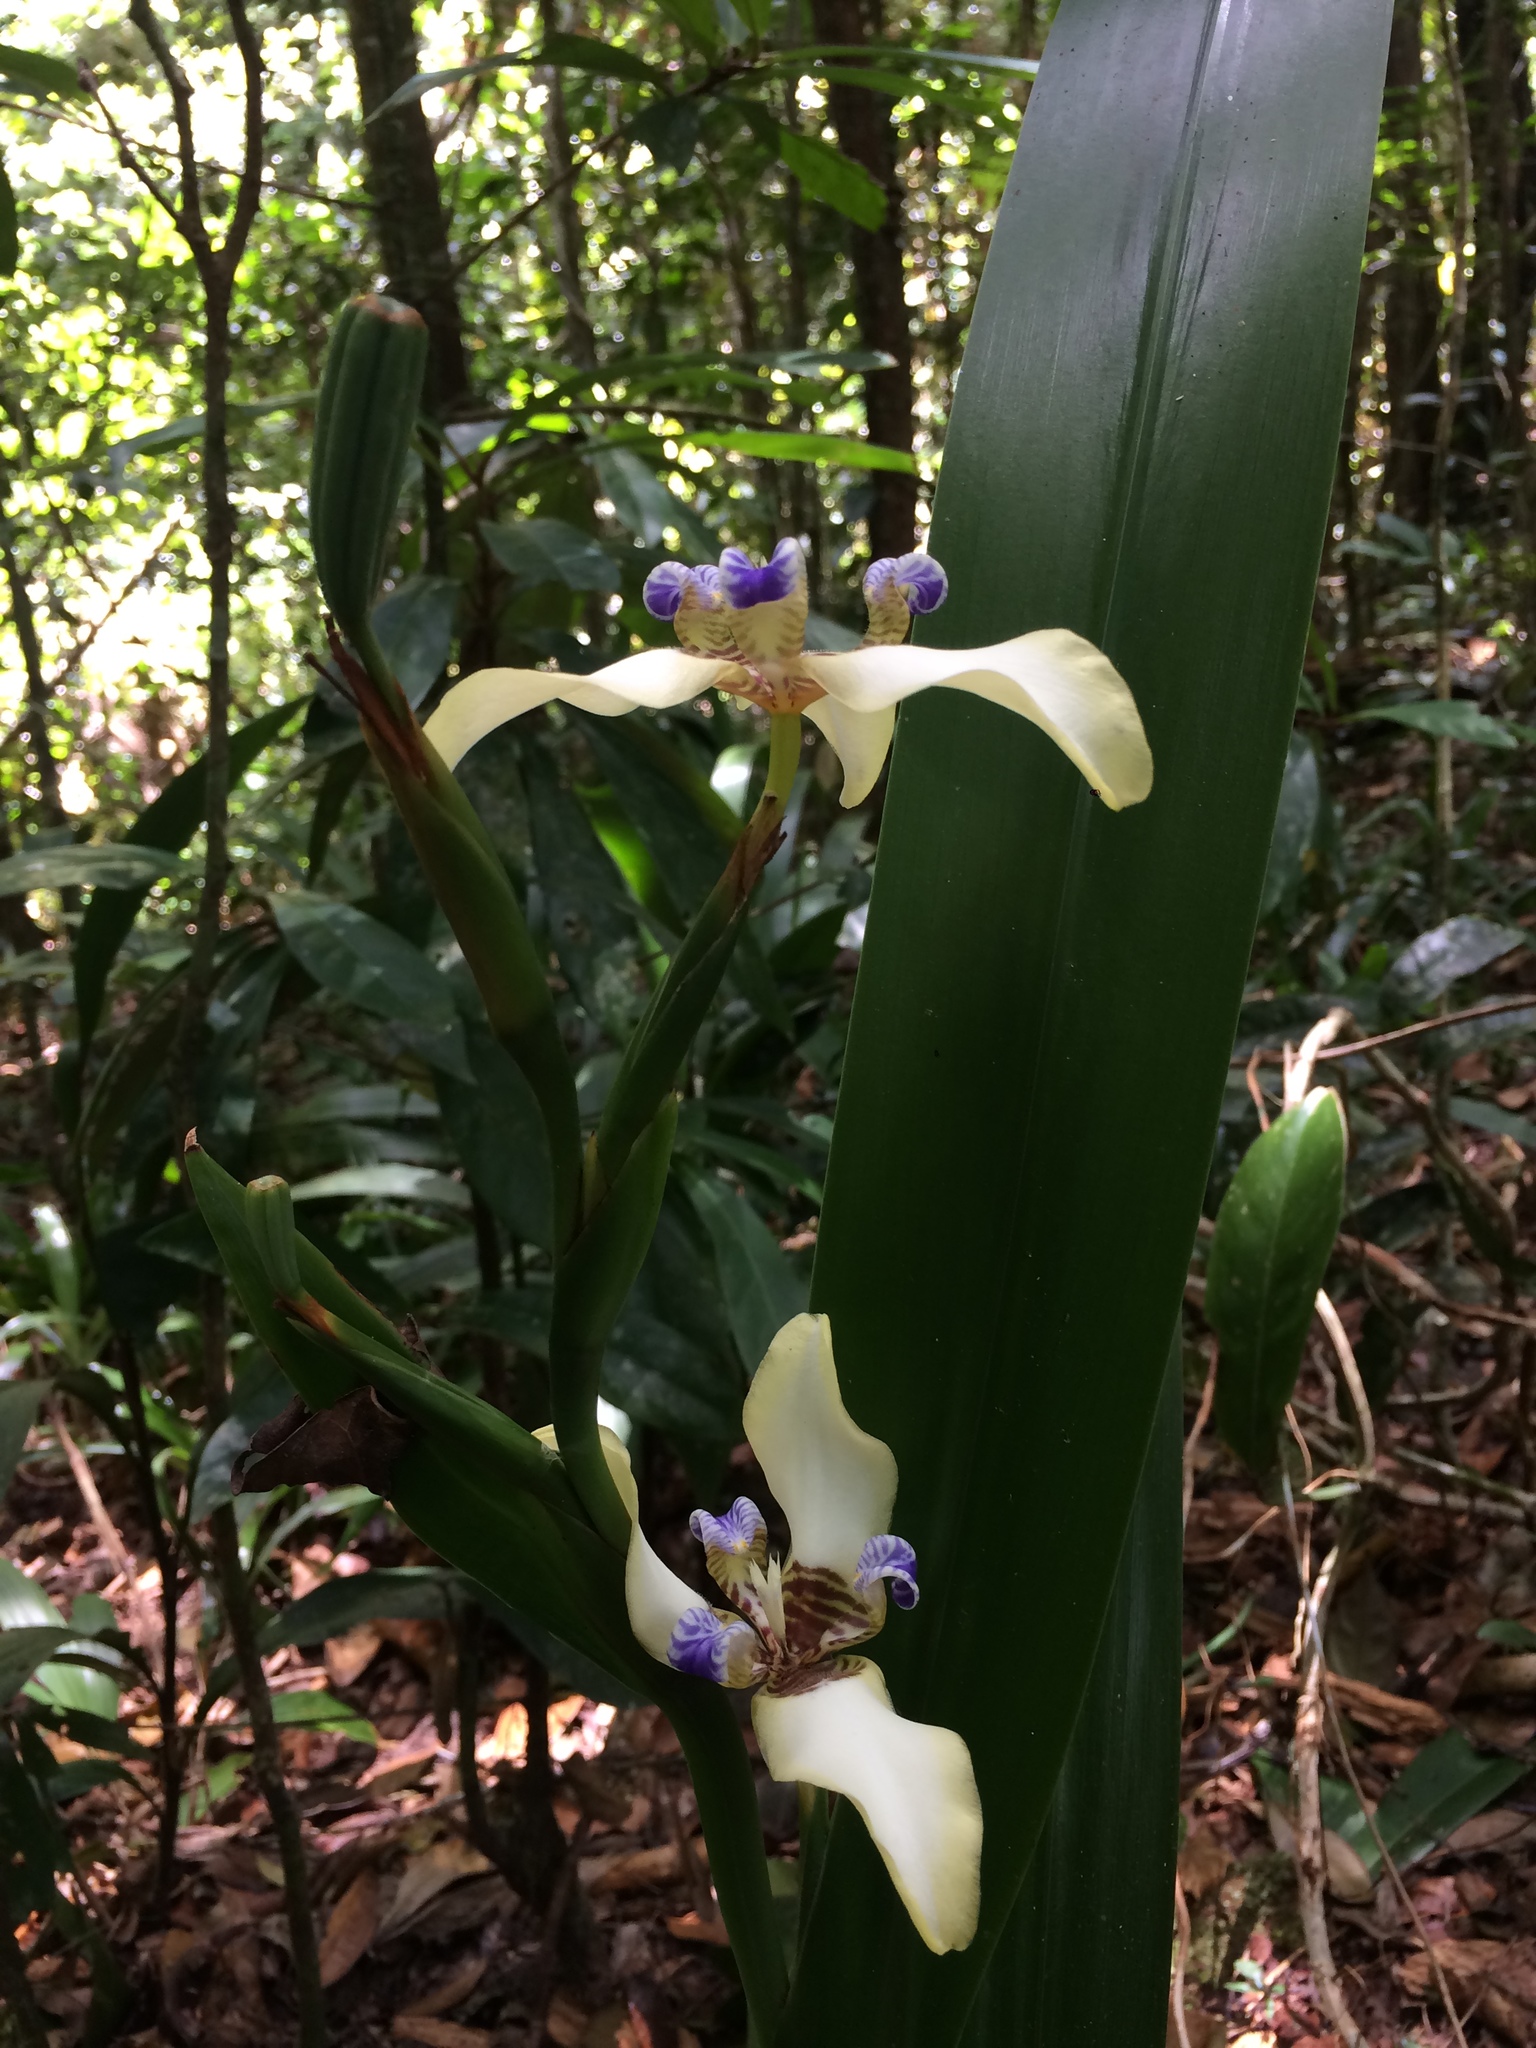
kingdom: Plantae
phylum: Tracheophyta
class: Liliopsida
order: Asparagales
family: Iridaceae
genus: Trimezia
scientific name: Trimezia portosecurensis
